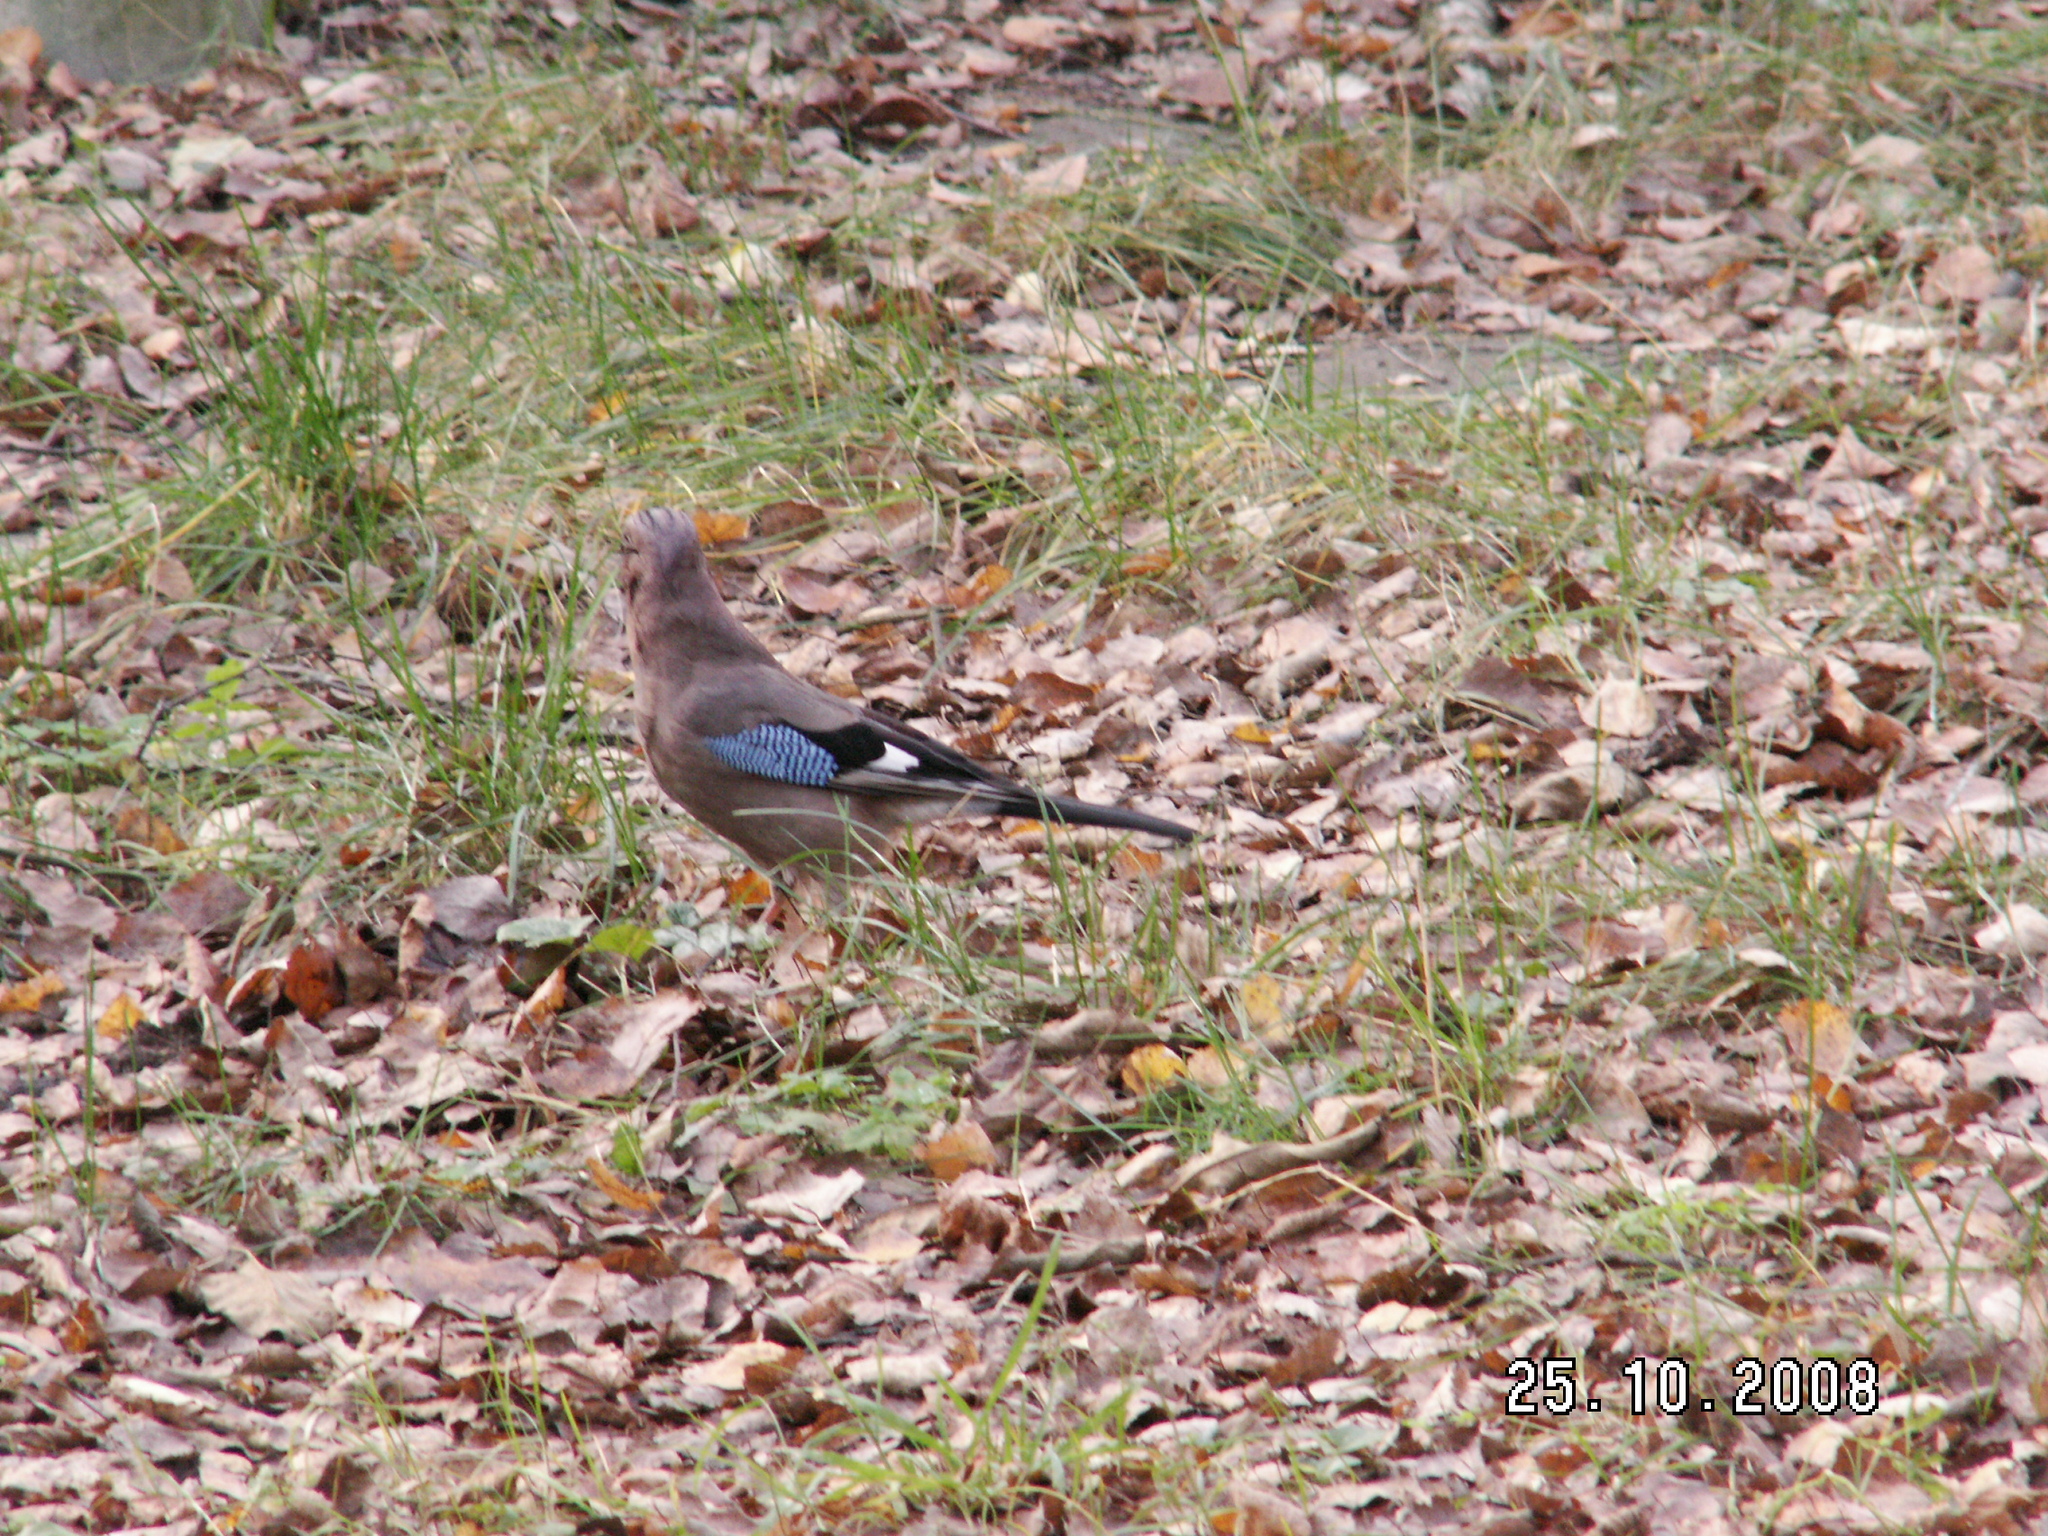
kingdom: Animalia
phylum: Chordata
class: Aves
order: Passeriformes
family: Corvidae
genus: Garrulus
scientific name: Garrulus glandarius
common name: Eurasian jay
